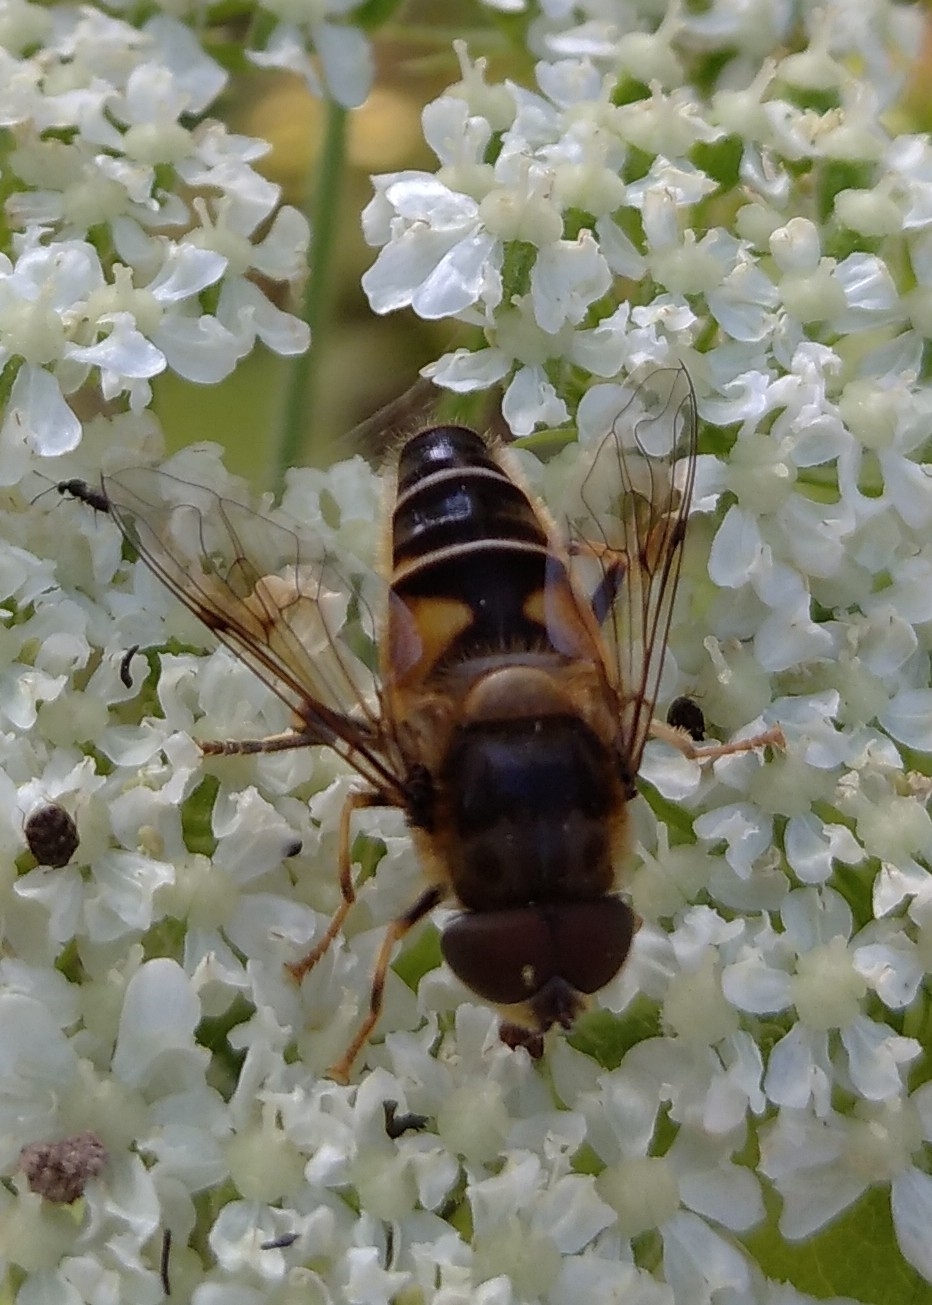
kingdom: Animalia
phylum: Arthropoda
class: Insecta
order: Diptera
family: Syrphidae
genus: Eristalis
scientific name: Eristalis pertinax
